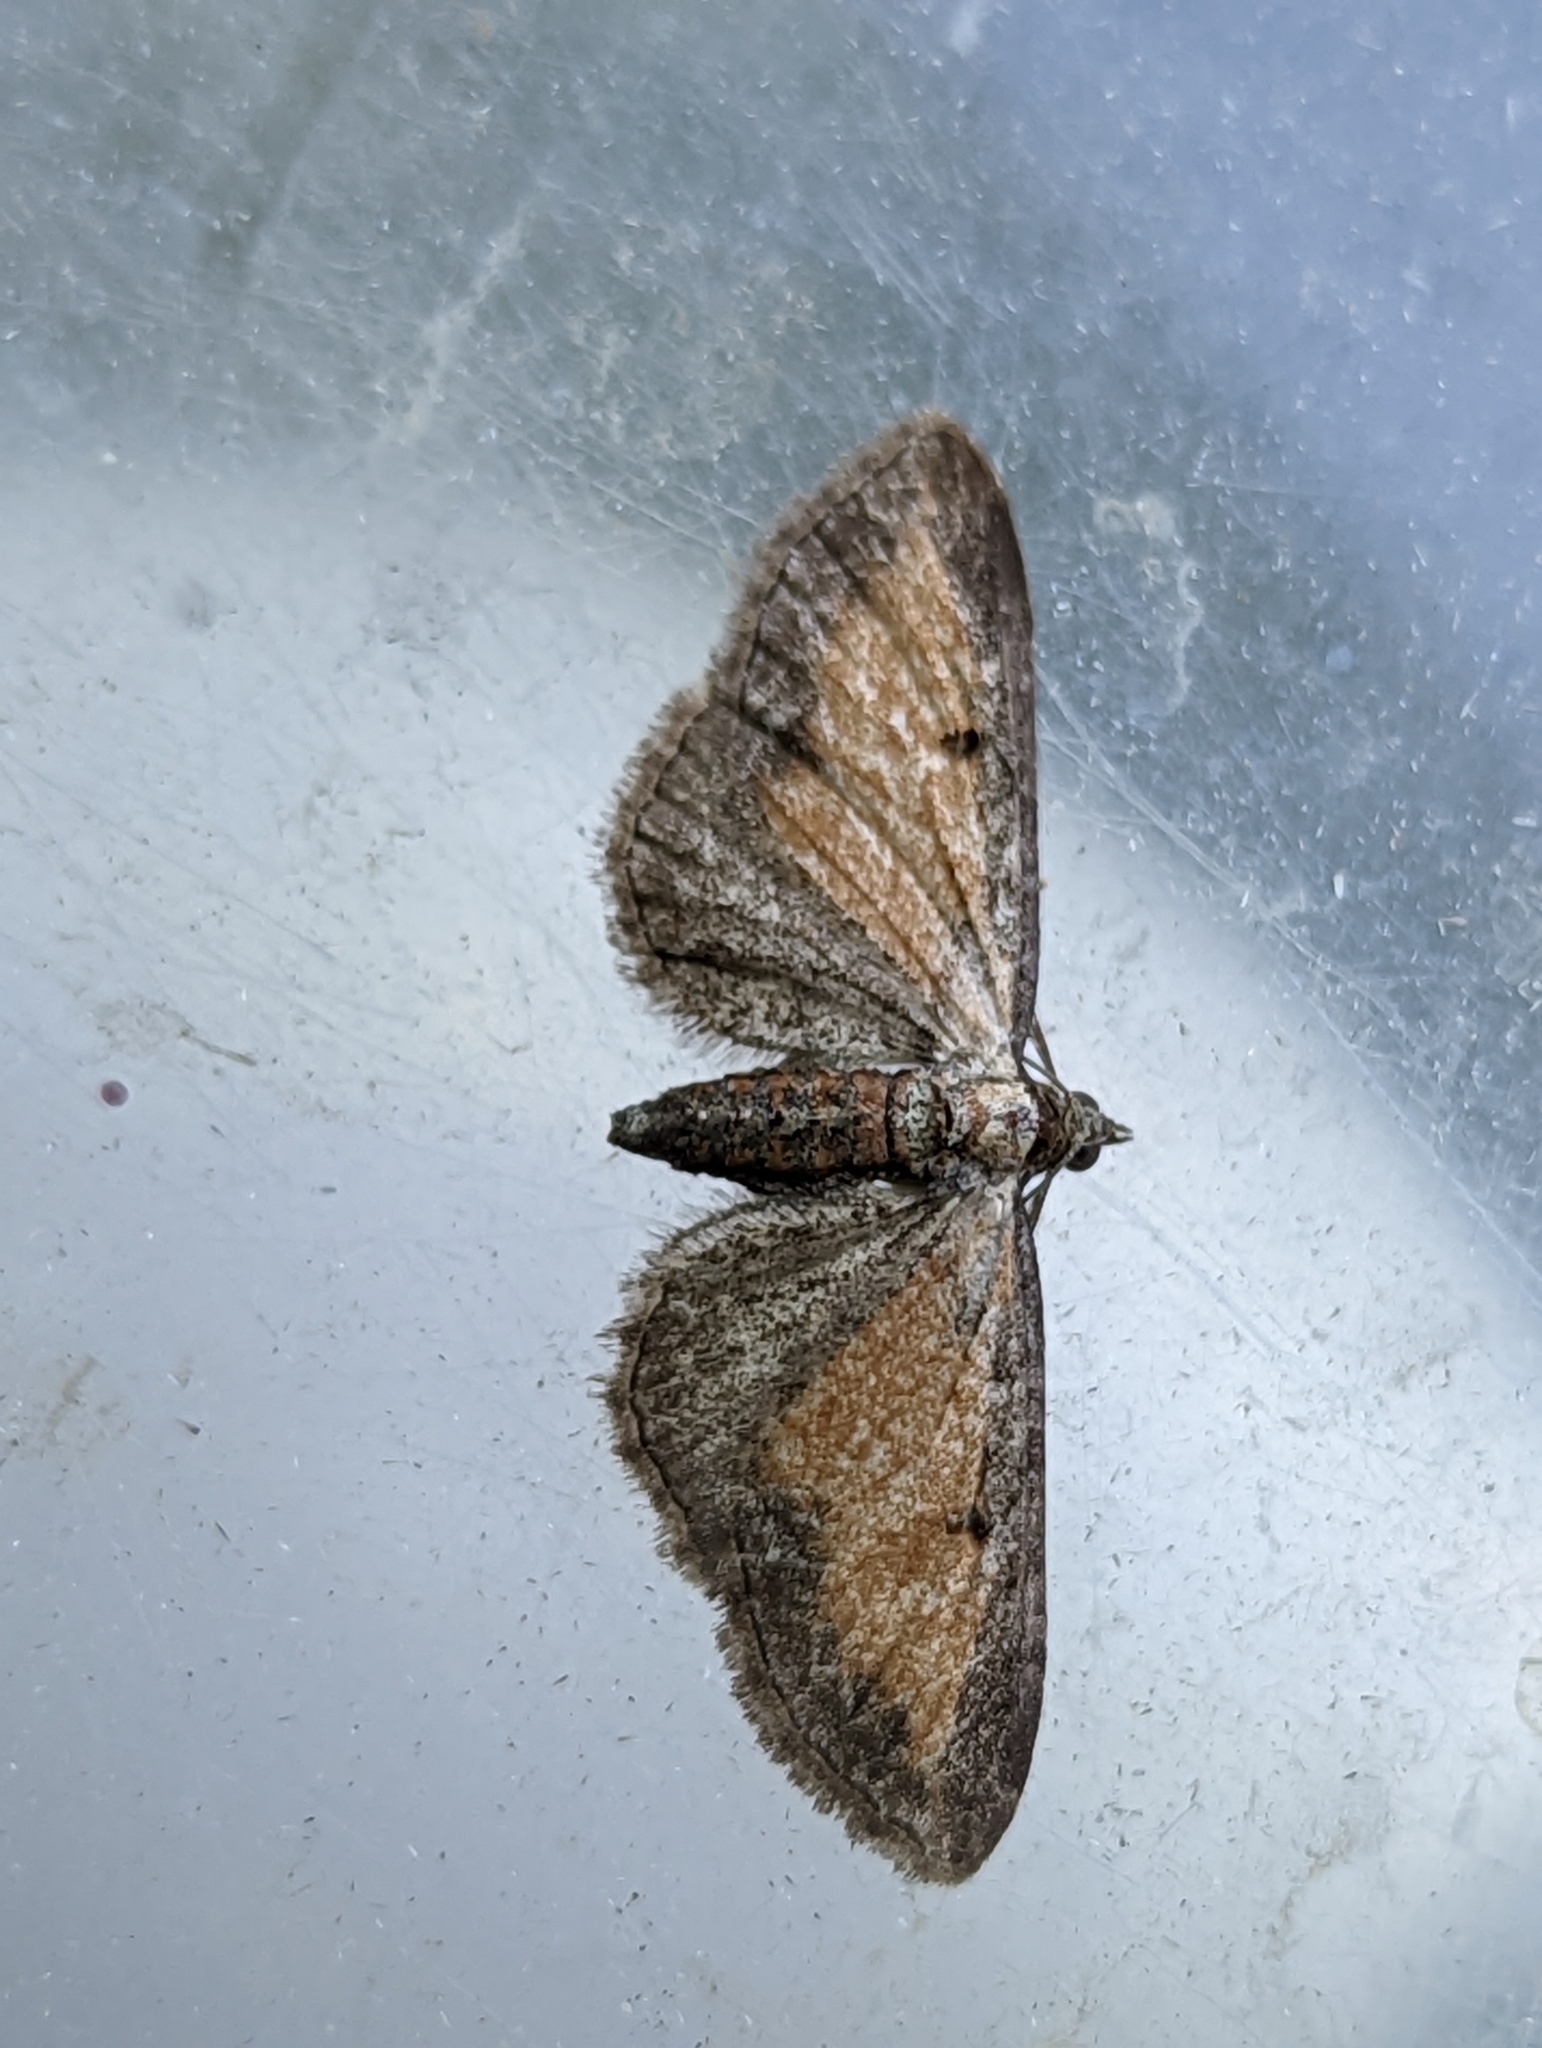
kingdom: Animalia
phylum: Arthropoda
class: Insecta
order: Lepidoptera
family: Geometridae
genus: Eupithecia
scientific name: Eupithecia icterata
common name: Tawny speckled pug
